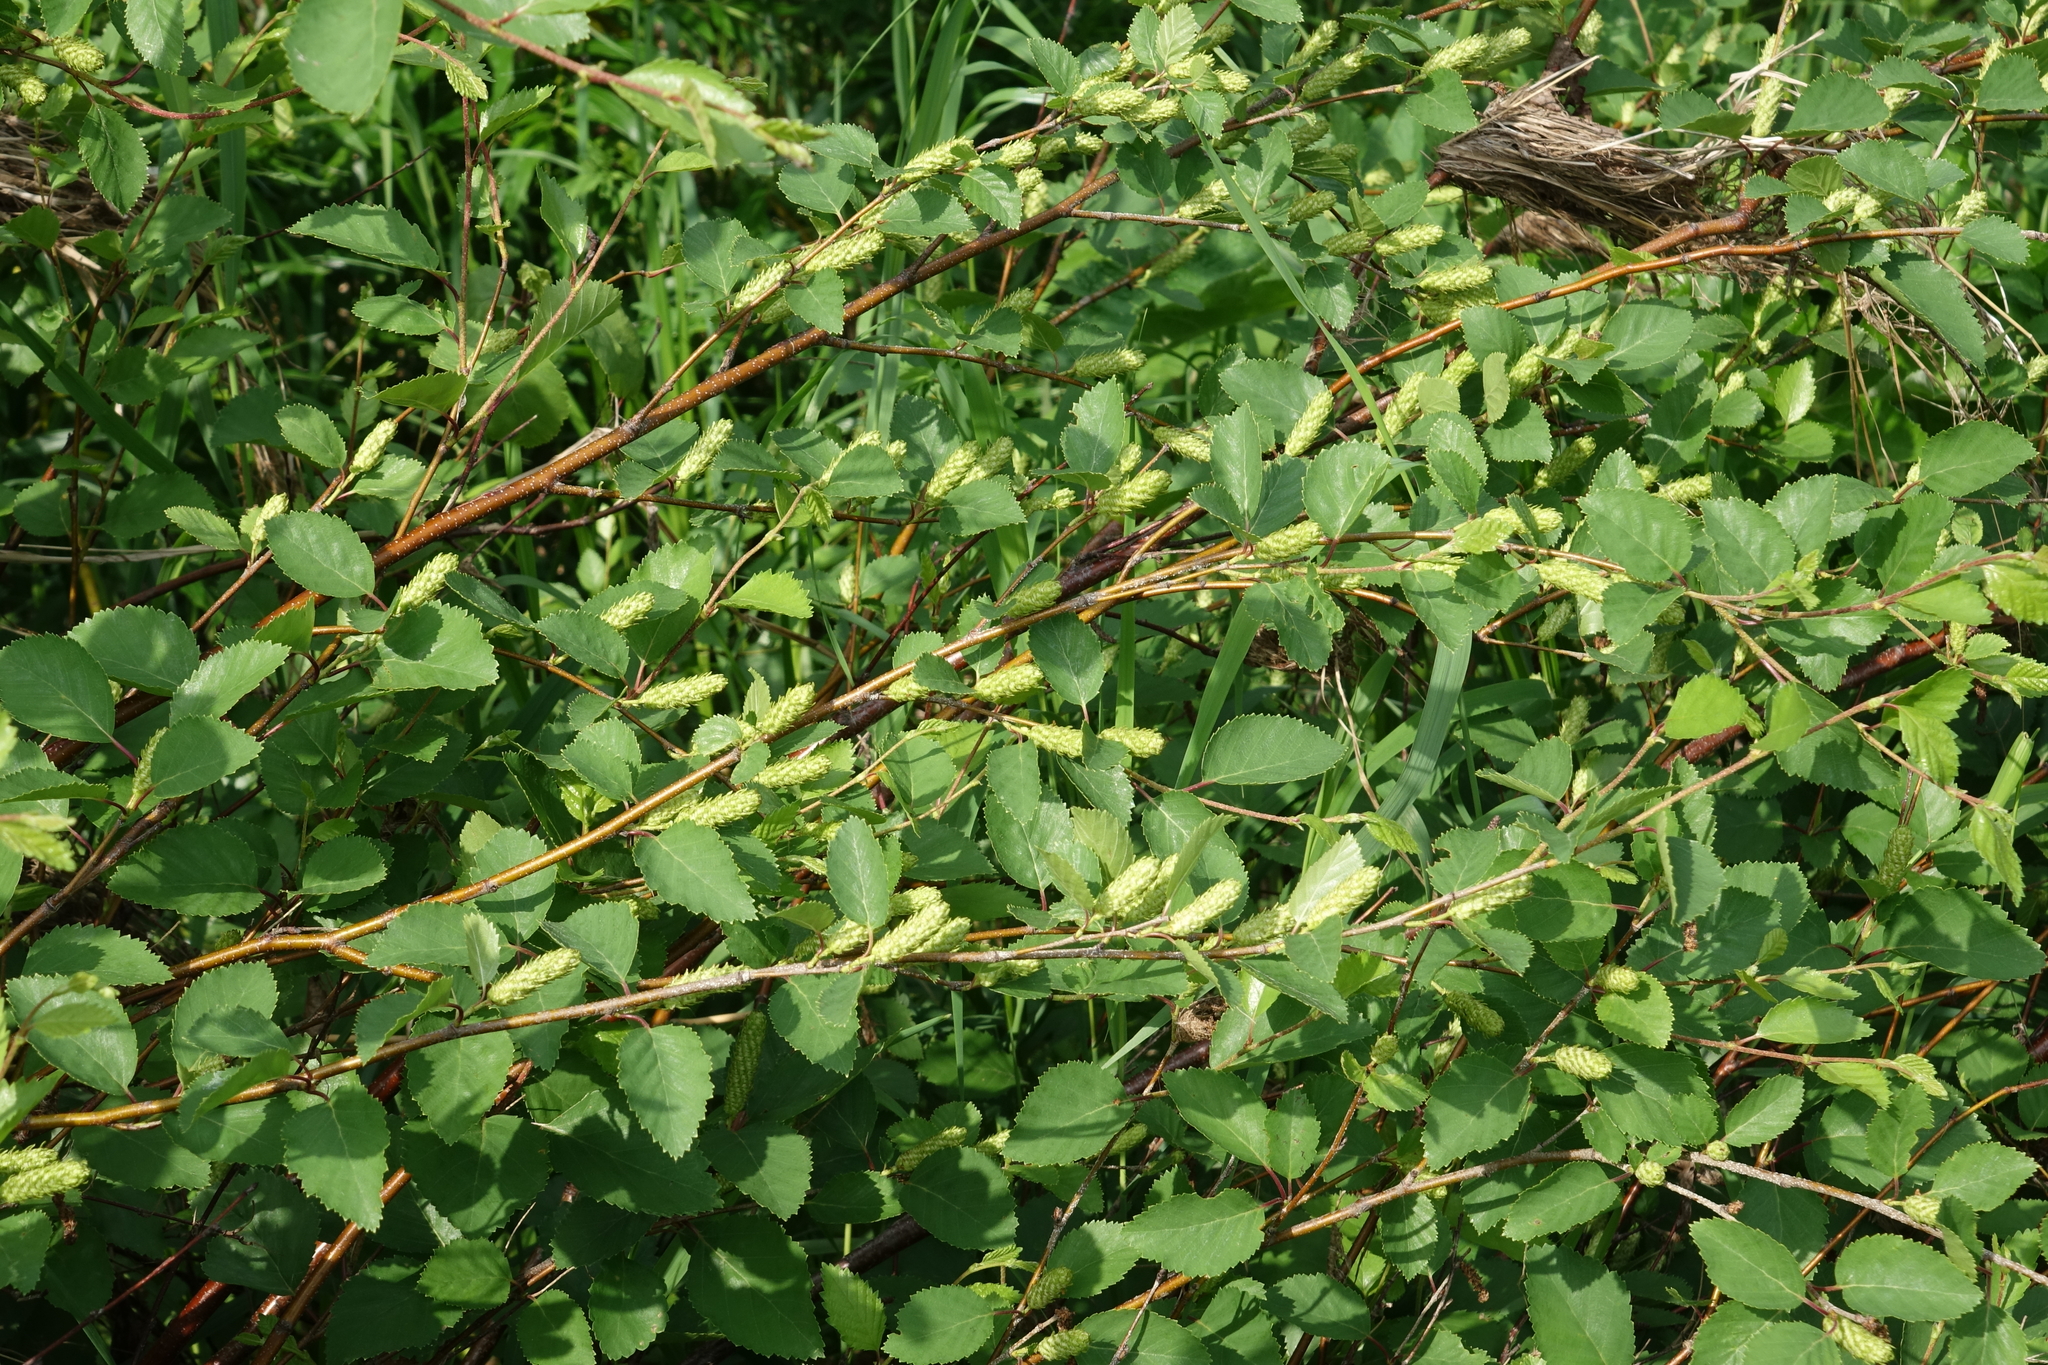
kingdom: Plantae
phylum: Tracheophyta
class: Magnoliopsida
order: Fagales
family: Betulaceae
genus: Betula
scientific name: Betula fruticosa
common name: Japanese bog birch
